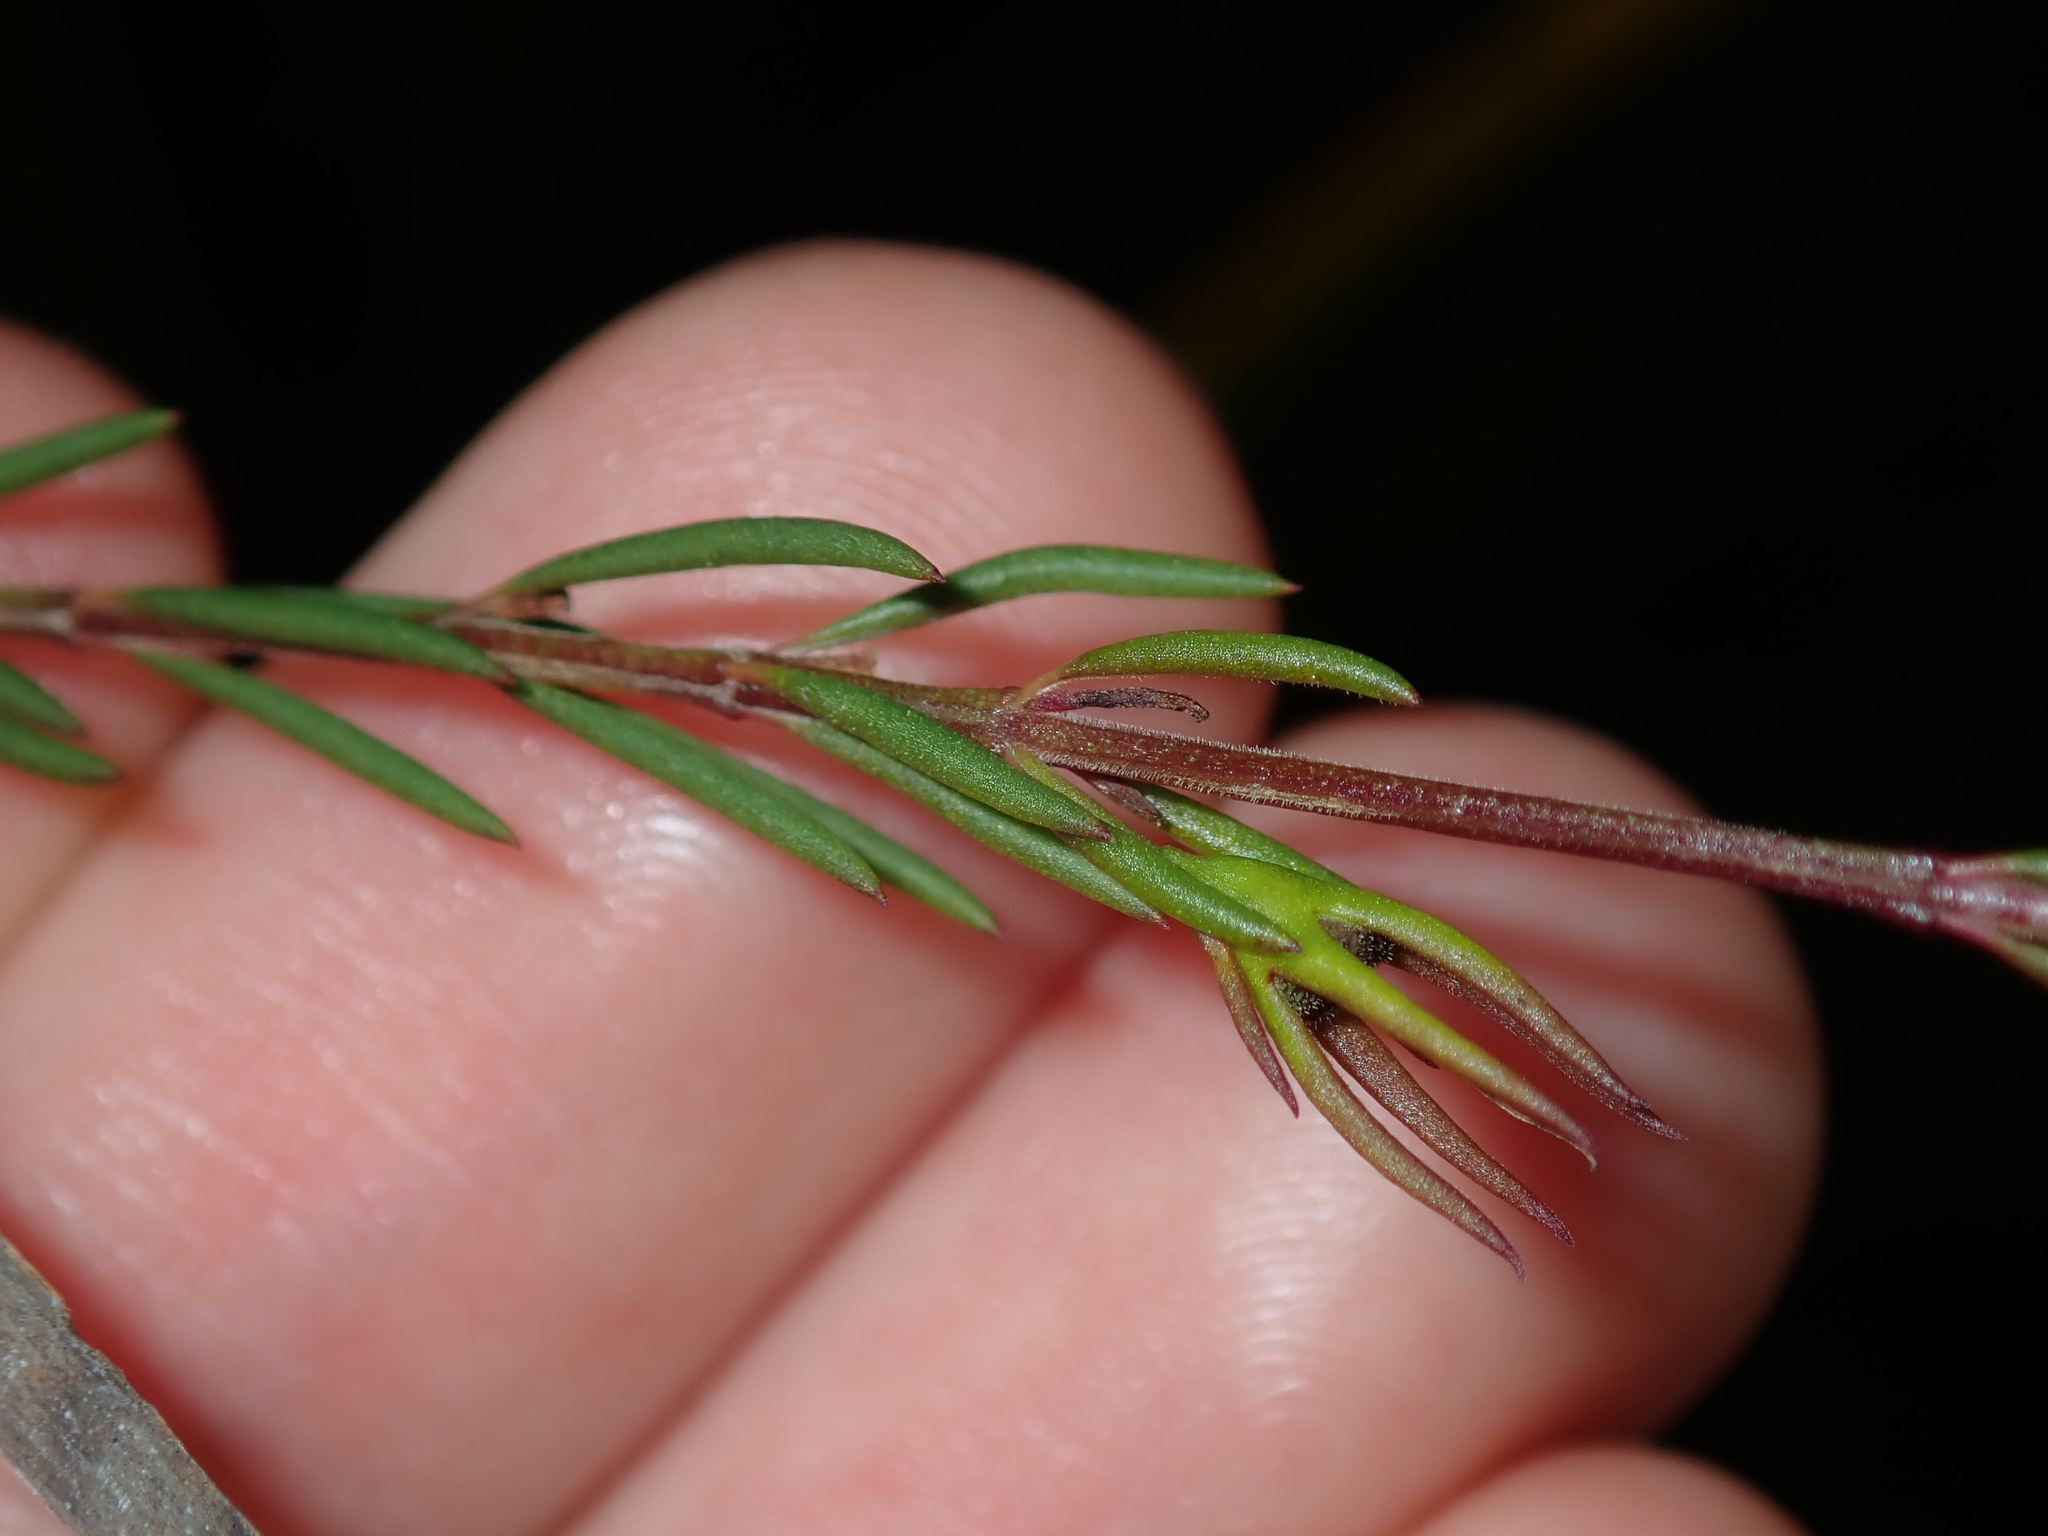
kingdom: Plantae
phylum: Tracheophyta
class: Magnoliopsida
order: Lamiales
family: Lamiaceae
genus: Hemigenia
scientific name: Hemigenia purpurea
